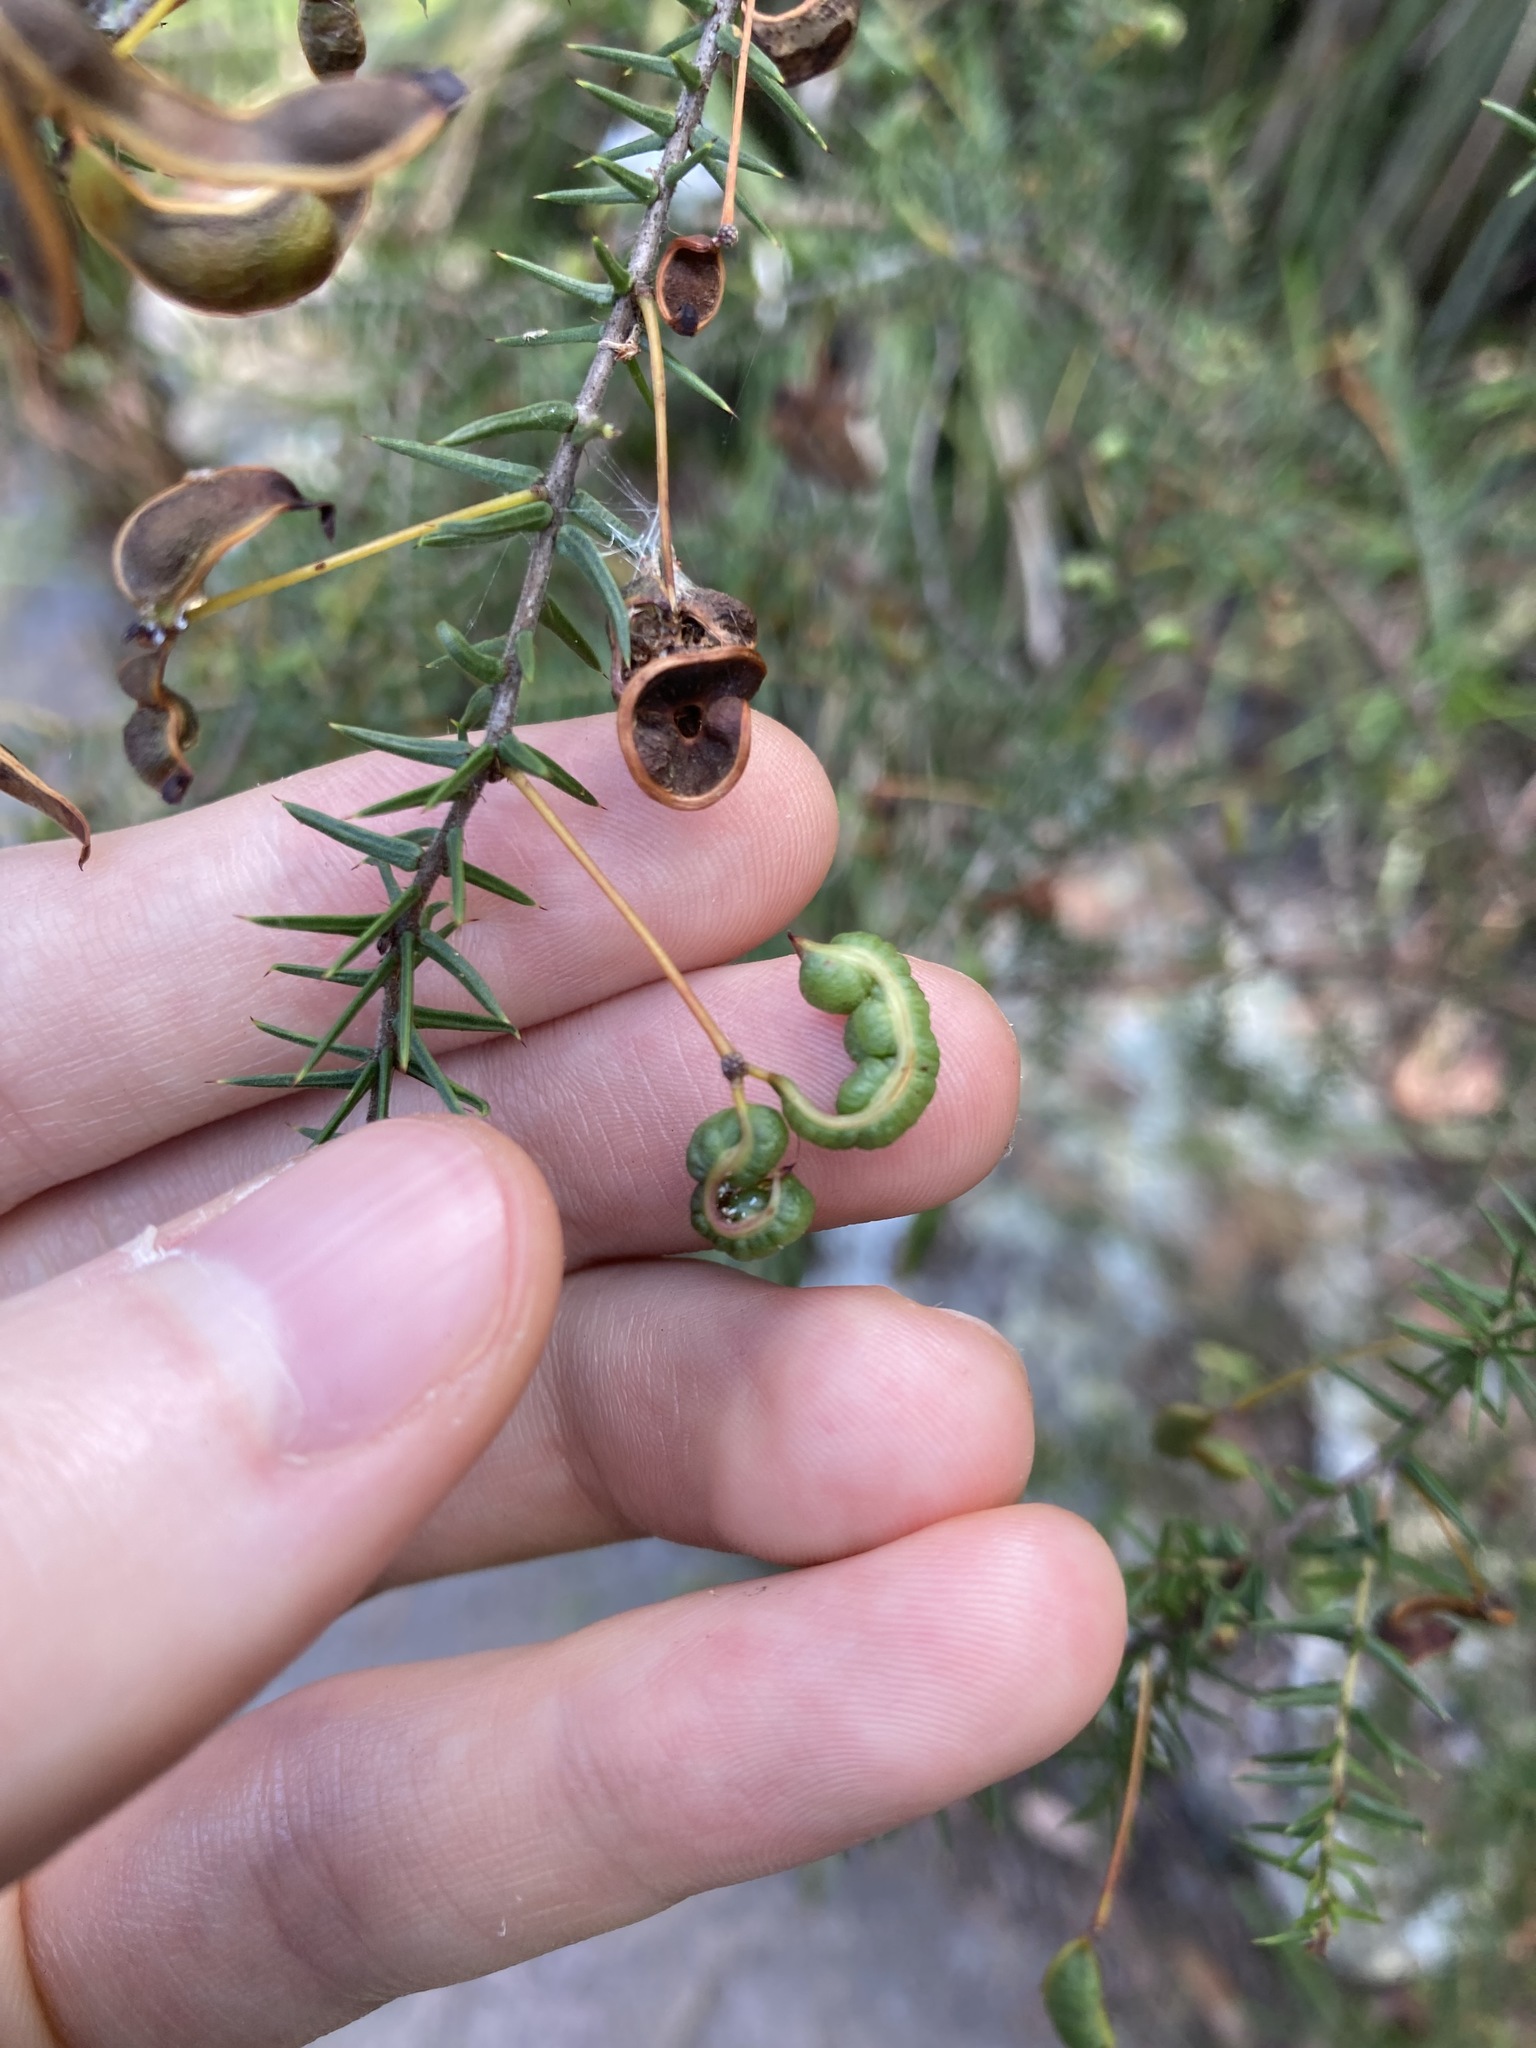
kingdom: Plantae
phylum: Tracheophyta
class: Magnoliopsida
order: Fabales
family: Fabaceae
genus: Acacia
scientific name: Acacia ulicifolia
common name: Juniper wattle
